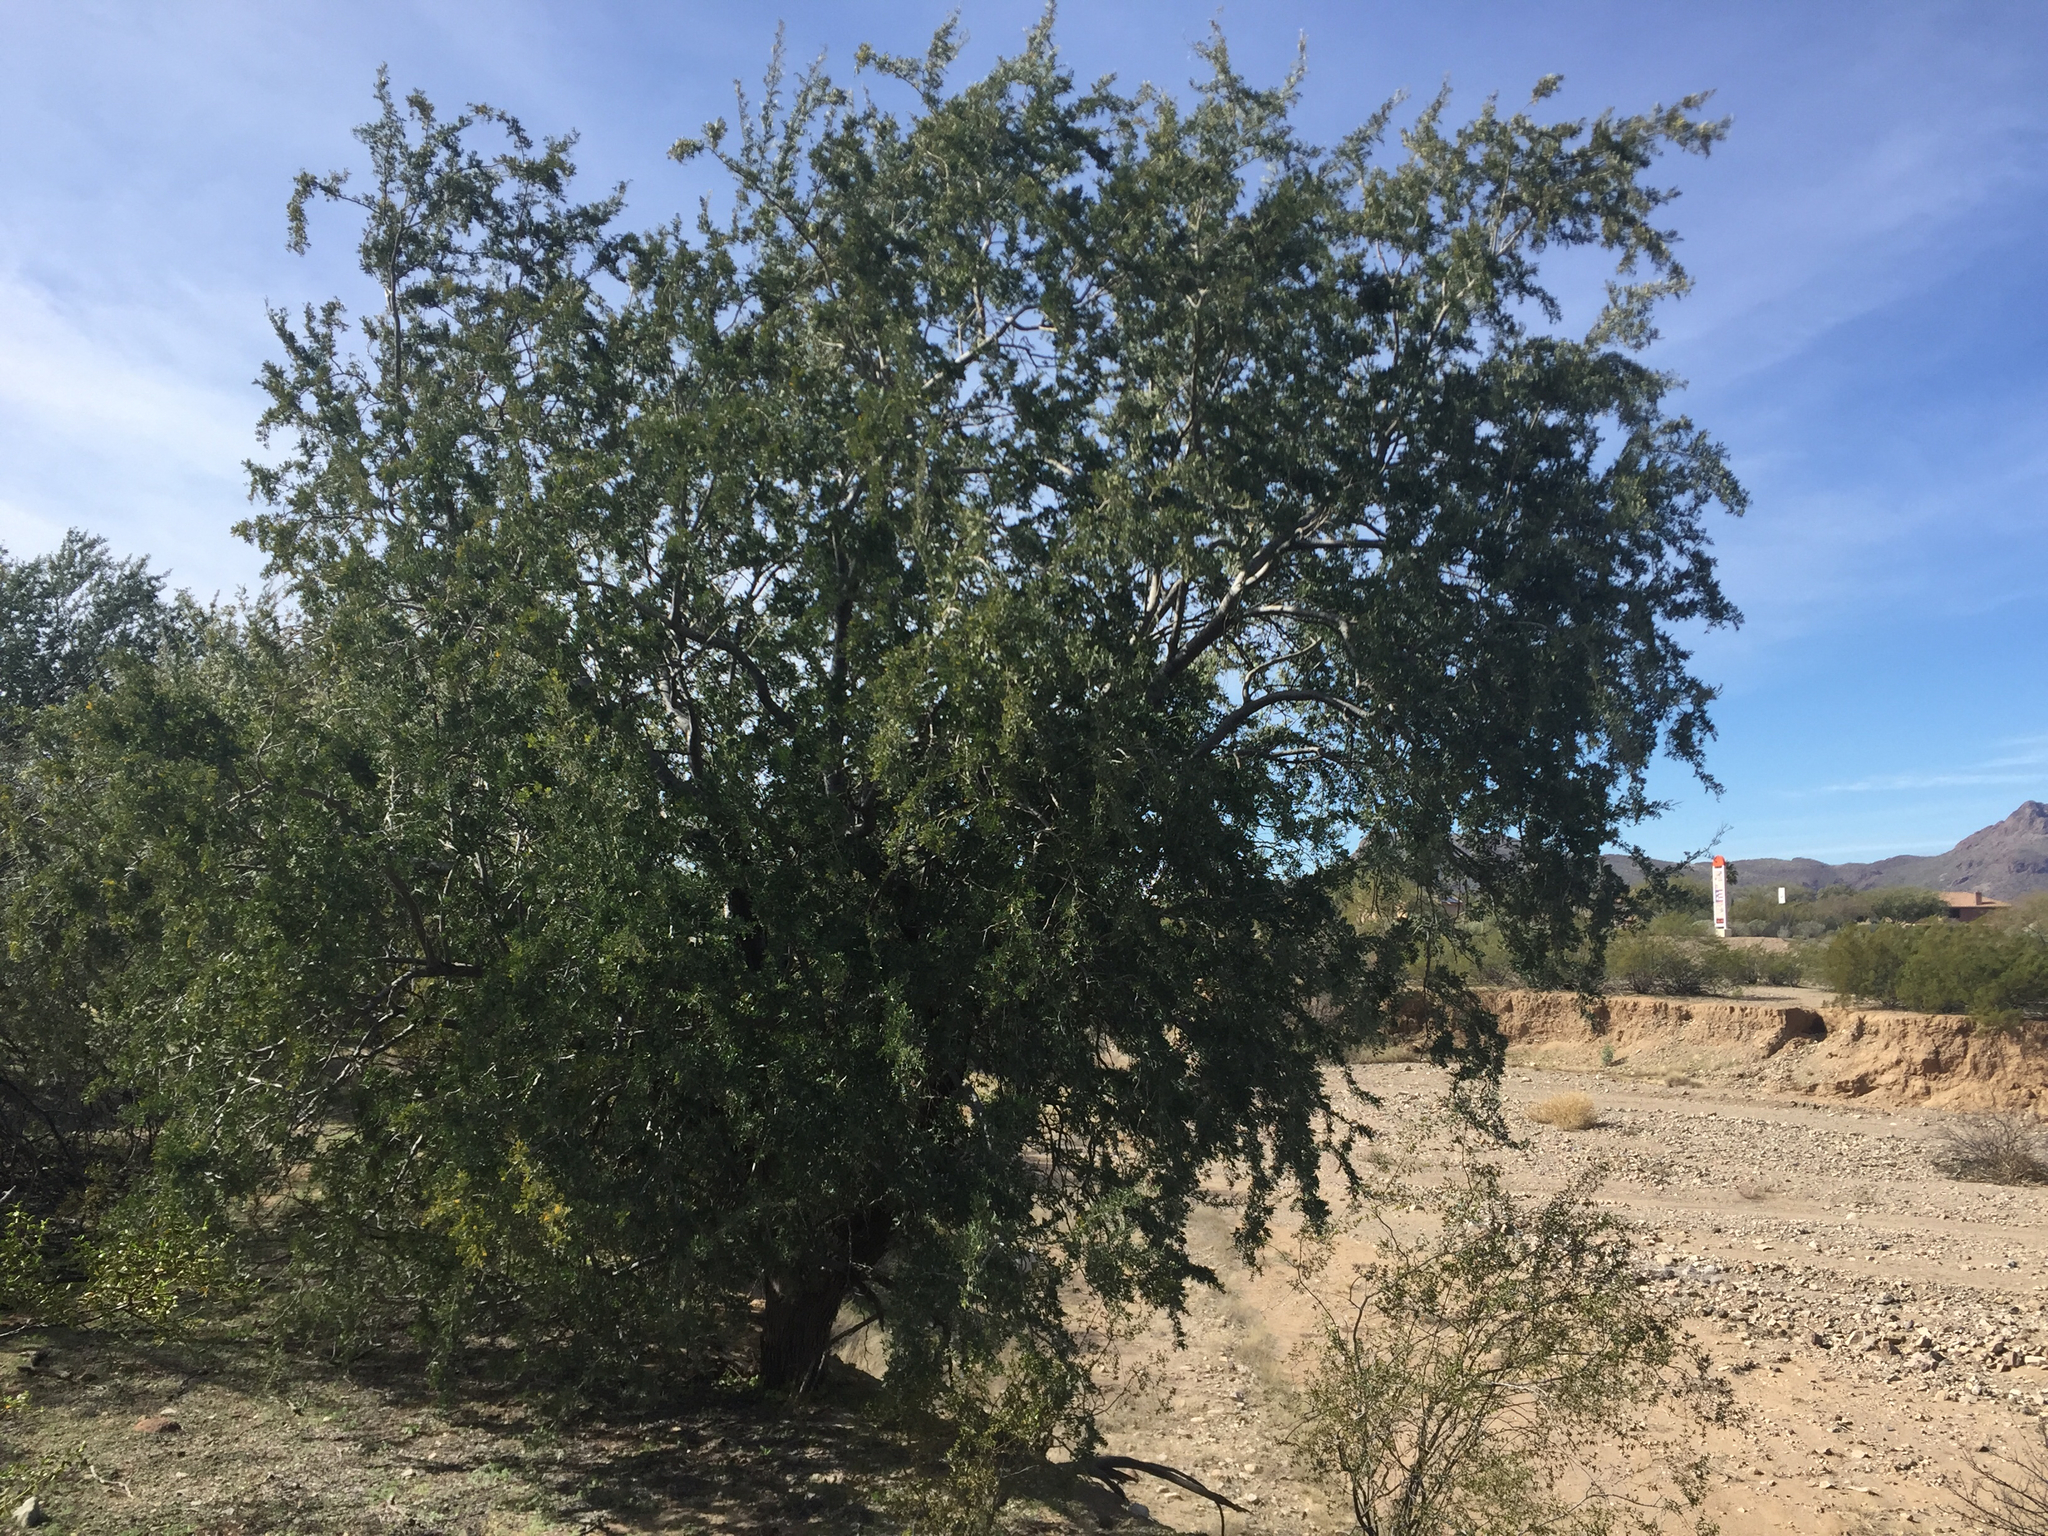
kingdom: Plantae
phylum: Tracheophyta
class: Magnoliopsida
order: Fabales
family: Fabaceae
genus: Olneya
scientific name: Olneya tesota
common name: Desert ironwood
